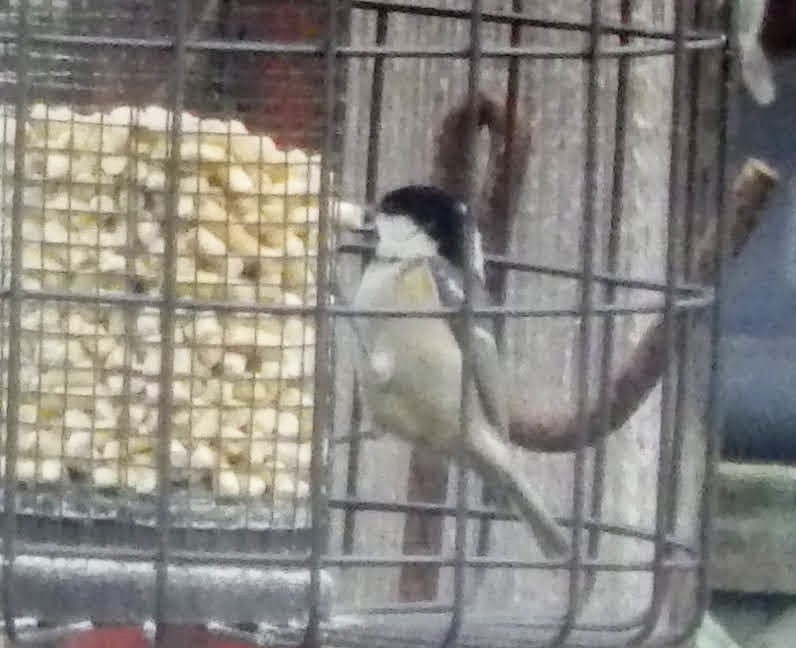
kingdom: Animalia
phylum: Chordata
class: Aves
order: Passeriformes
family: Paridae
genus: Periparus
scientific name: Periparus ater
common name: Coal tit
